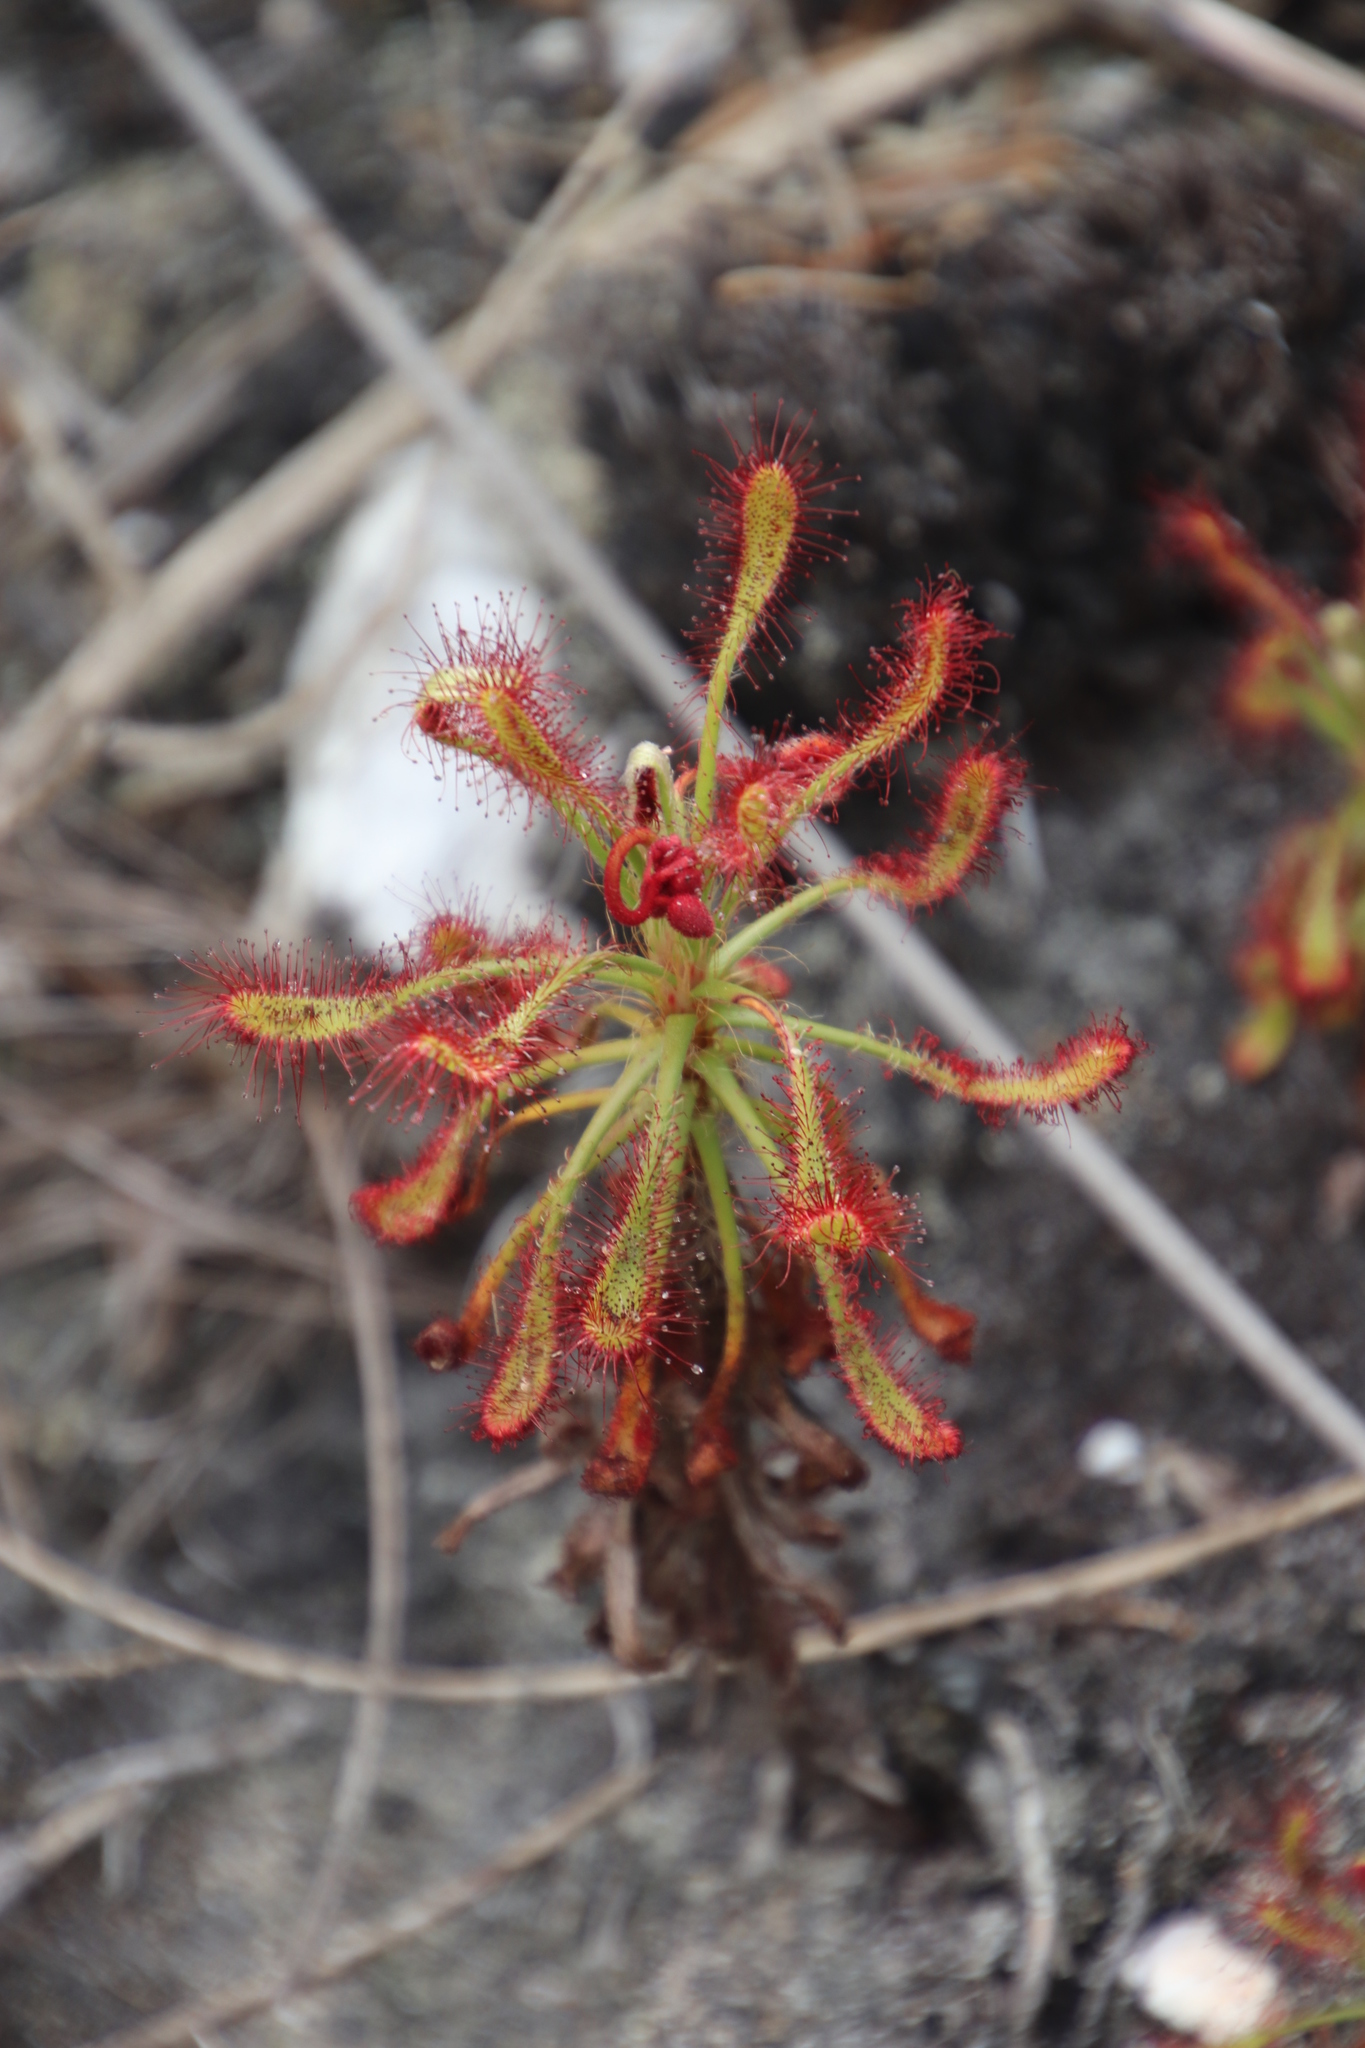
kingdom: Plantae
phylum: Tracheophyta
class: Magnoliopsida
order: Caryophyllales
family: Droseraceae
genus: Drosera
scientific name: Drosera glabripes
